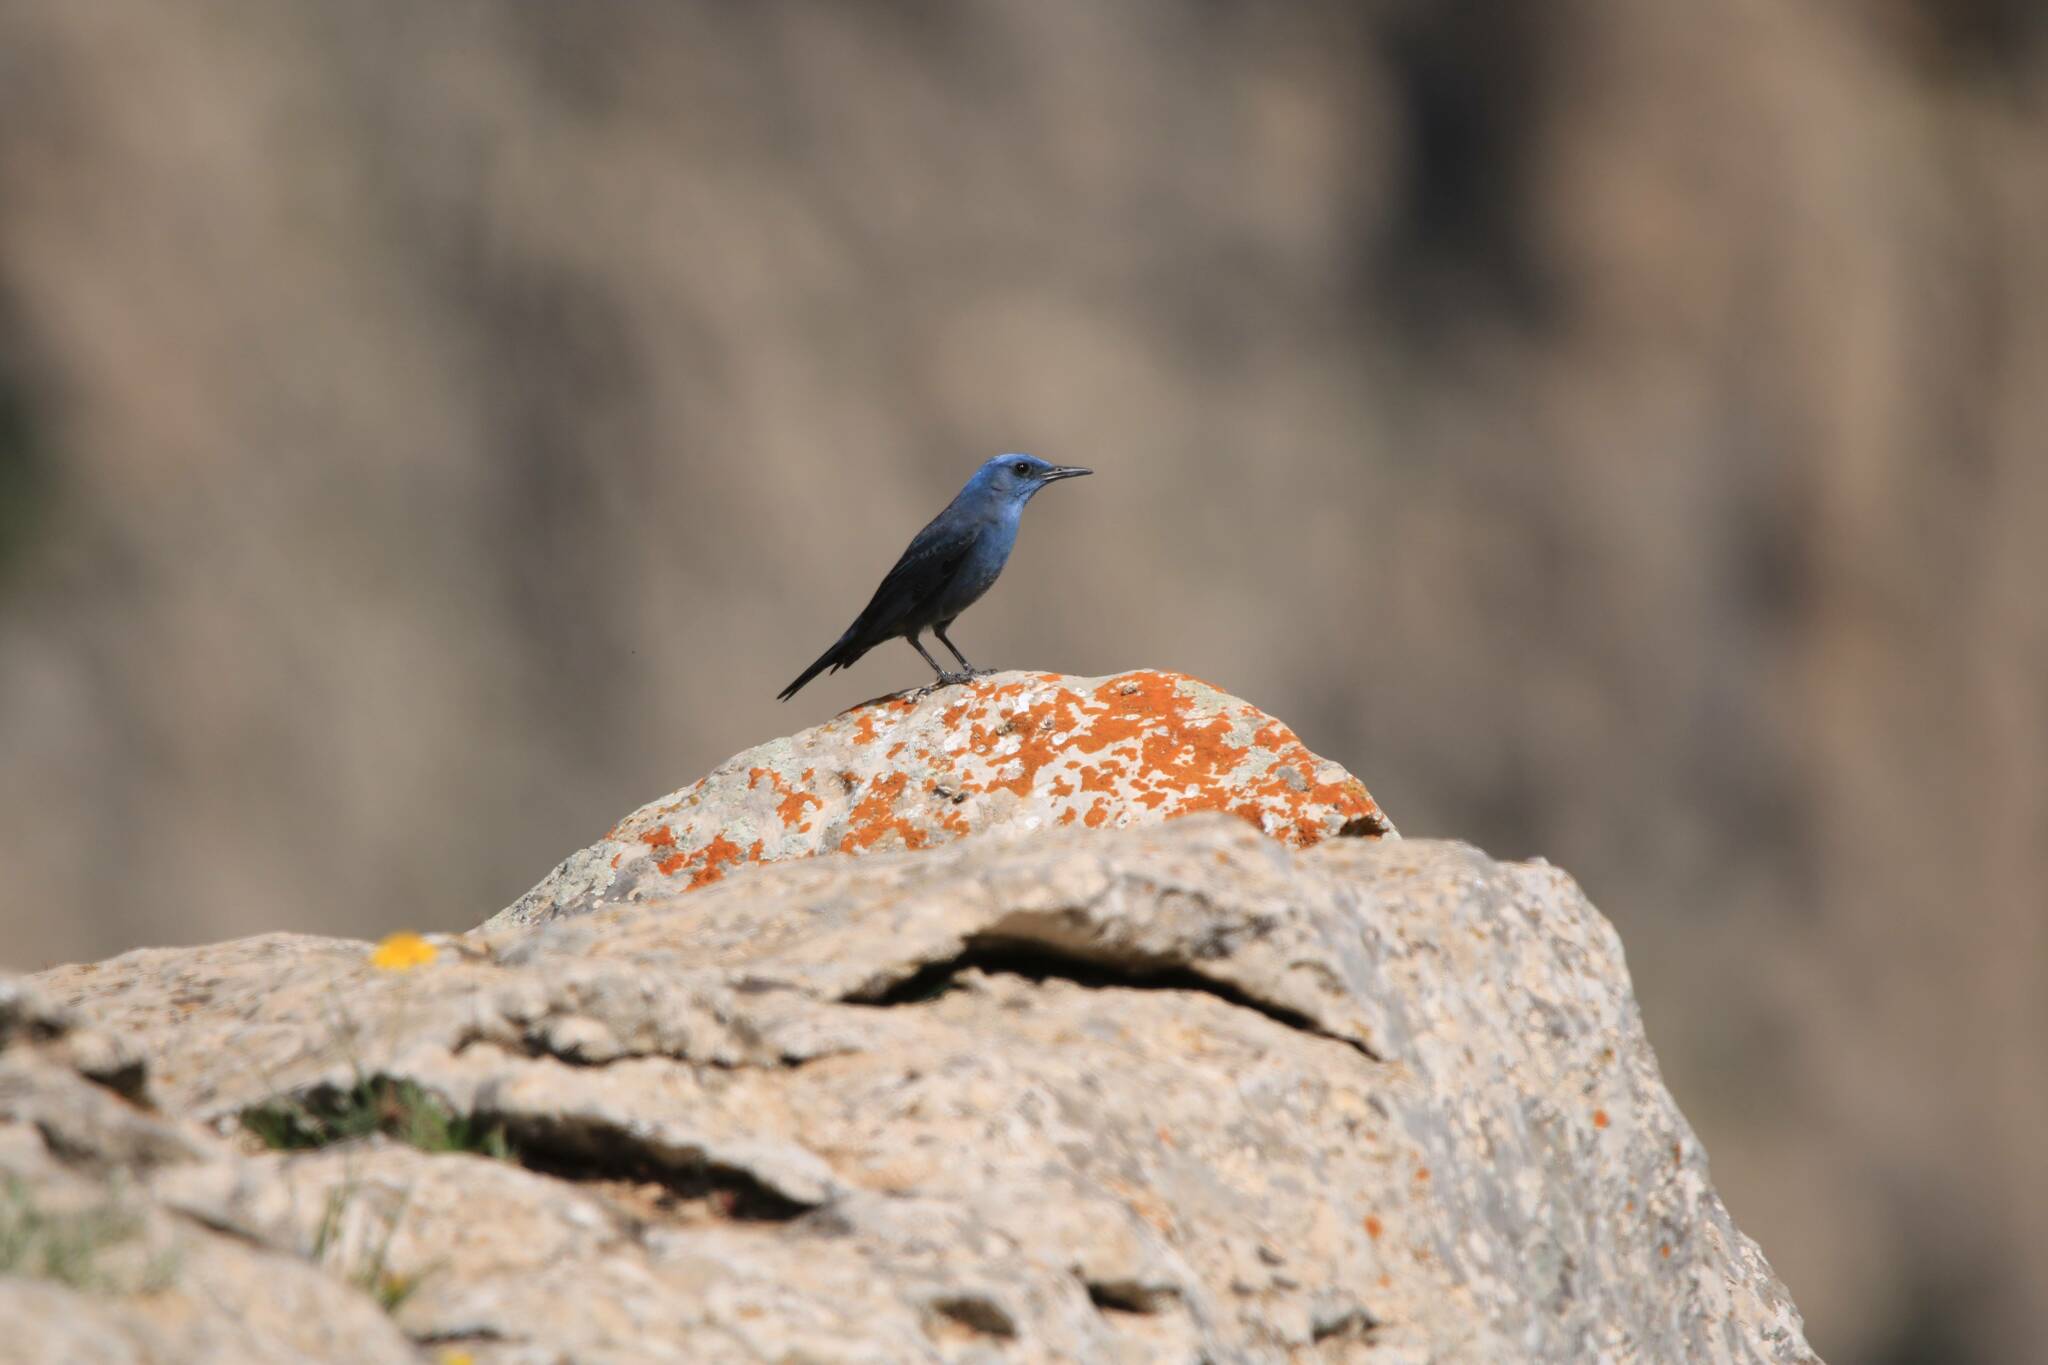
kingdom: Animalia
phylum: Chordata
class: Aves
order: Passeriformes
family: Muscicapidae
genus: Monticola
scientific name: Monticola solitarius
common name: Blue rock thrush
